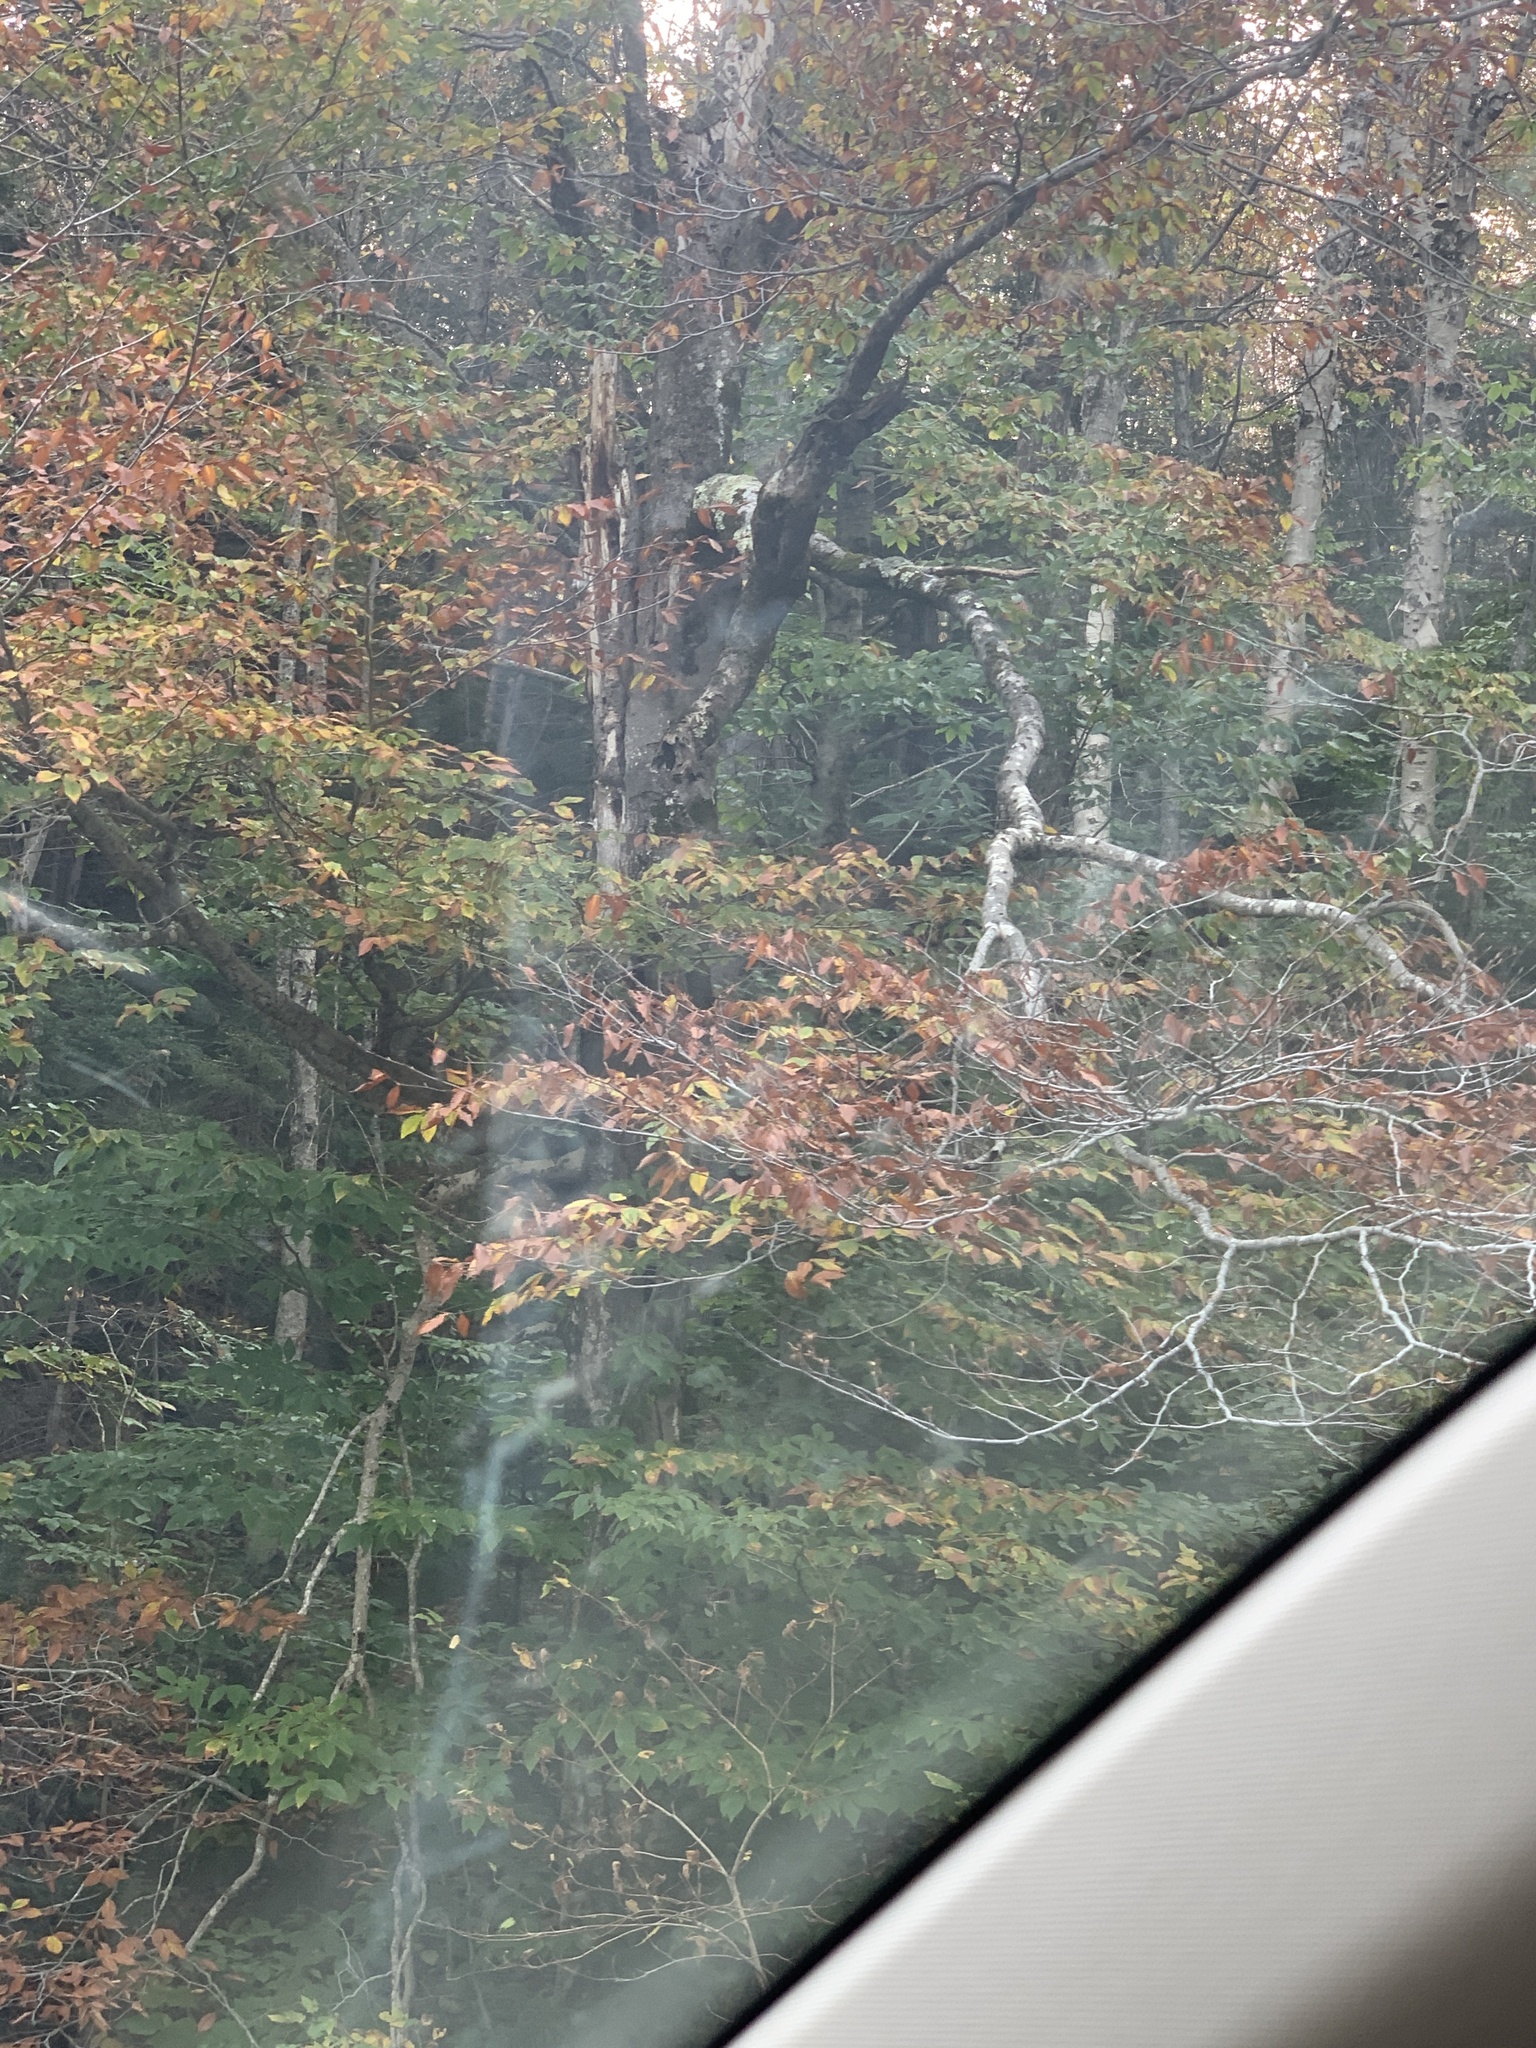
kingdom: Plantae
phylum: Tracheophyta
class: Magnoliopsida
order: Fagales
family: Fagaceae
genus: Fagus
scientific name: Fagus grandifolia
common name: American beech
